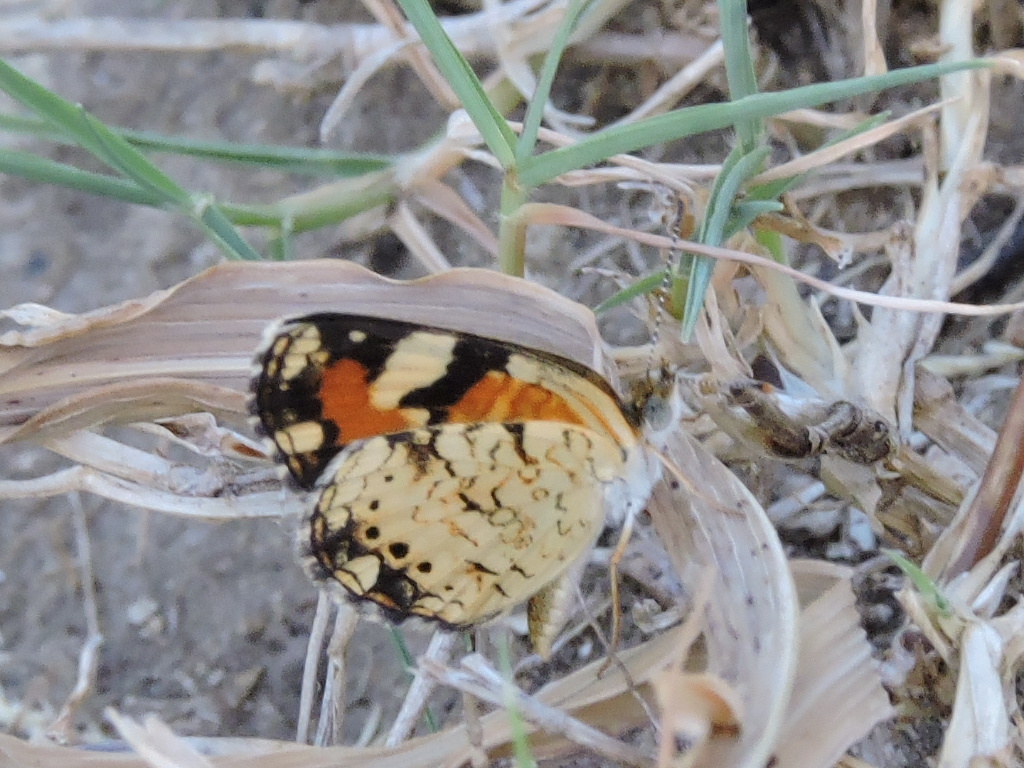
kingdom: Animalia
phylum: Arthropoda
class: Insecta
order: Lepidoptera
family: Nymphalidae
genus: Phyciodes
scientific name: Phyciodes phaon
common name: Phaon crescent
